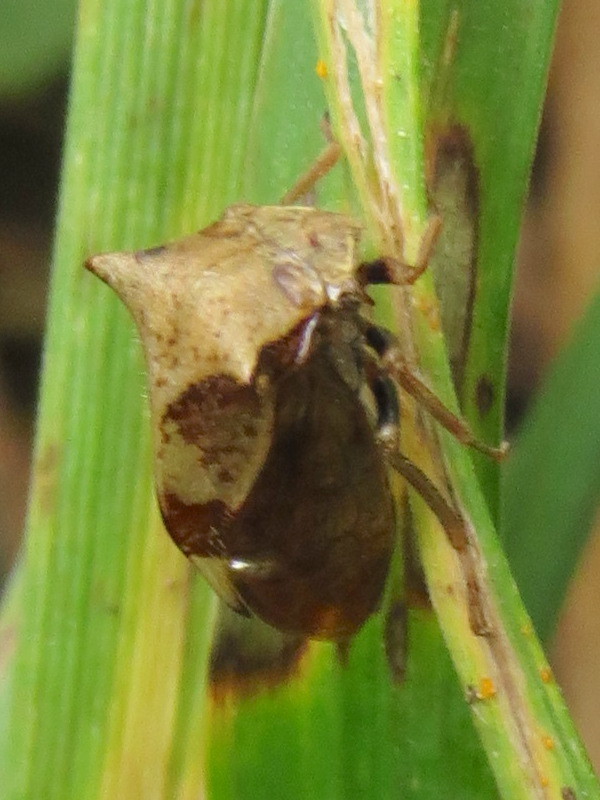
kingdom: Animalia
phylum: Arthropoda
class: Insecta
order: Hemiptera
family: Membracidae
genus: Stictocephala
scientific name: Stictocephala diceros
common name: Two-horned treehopper
